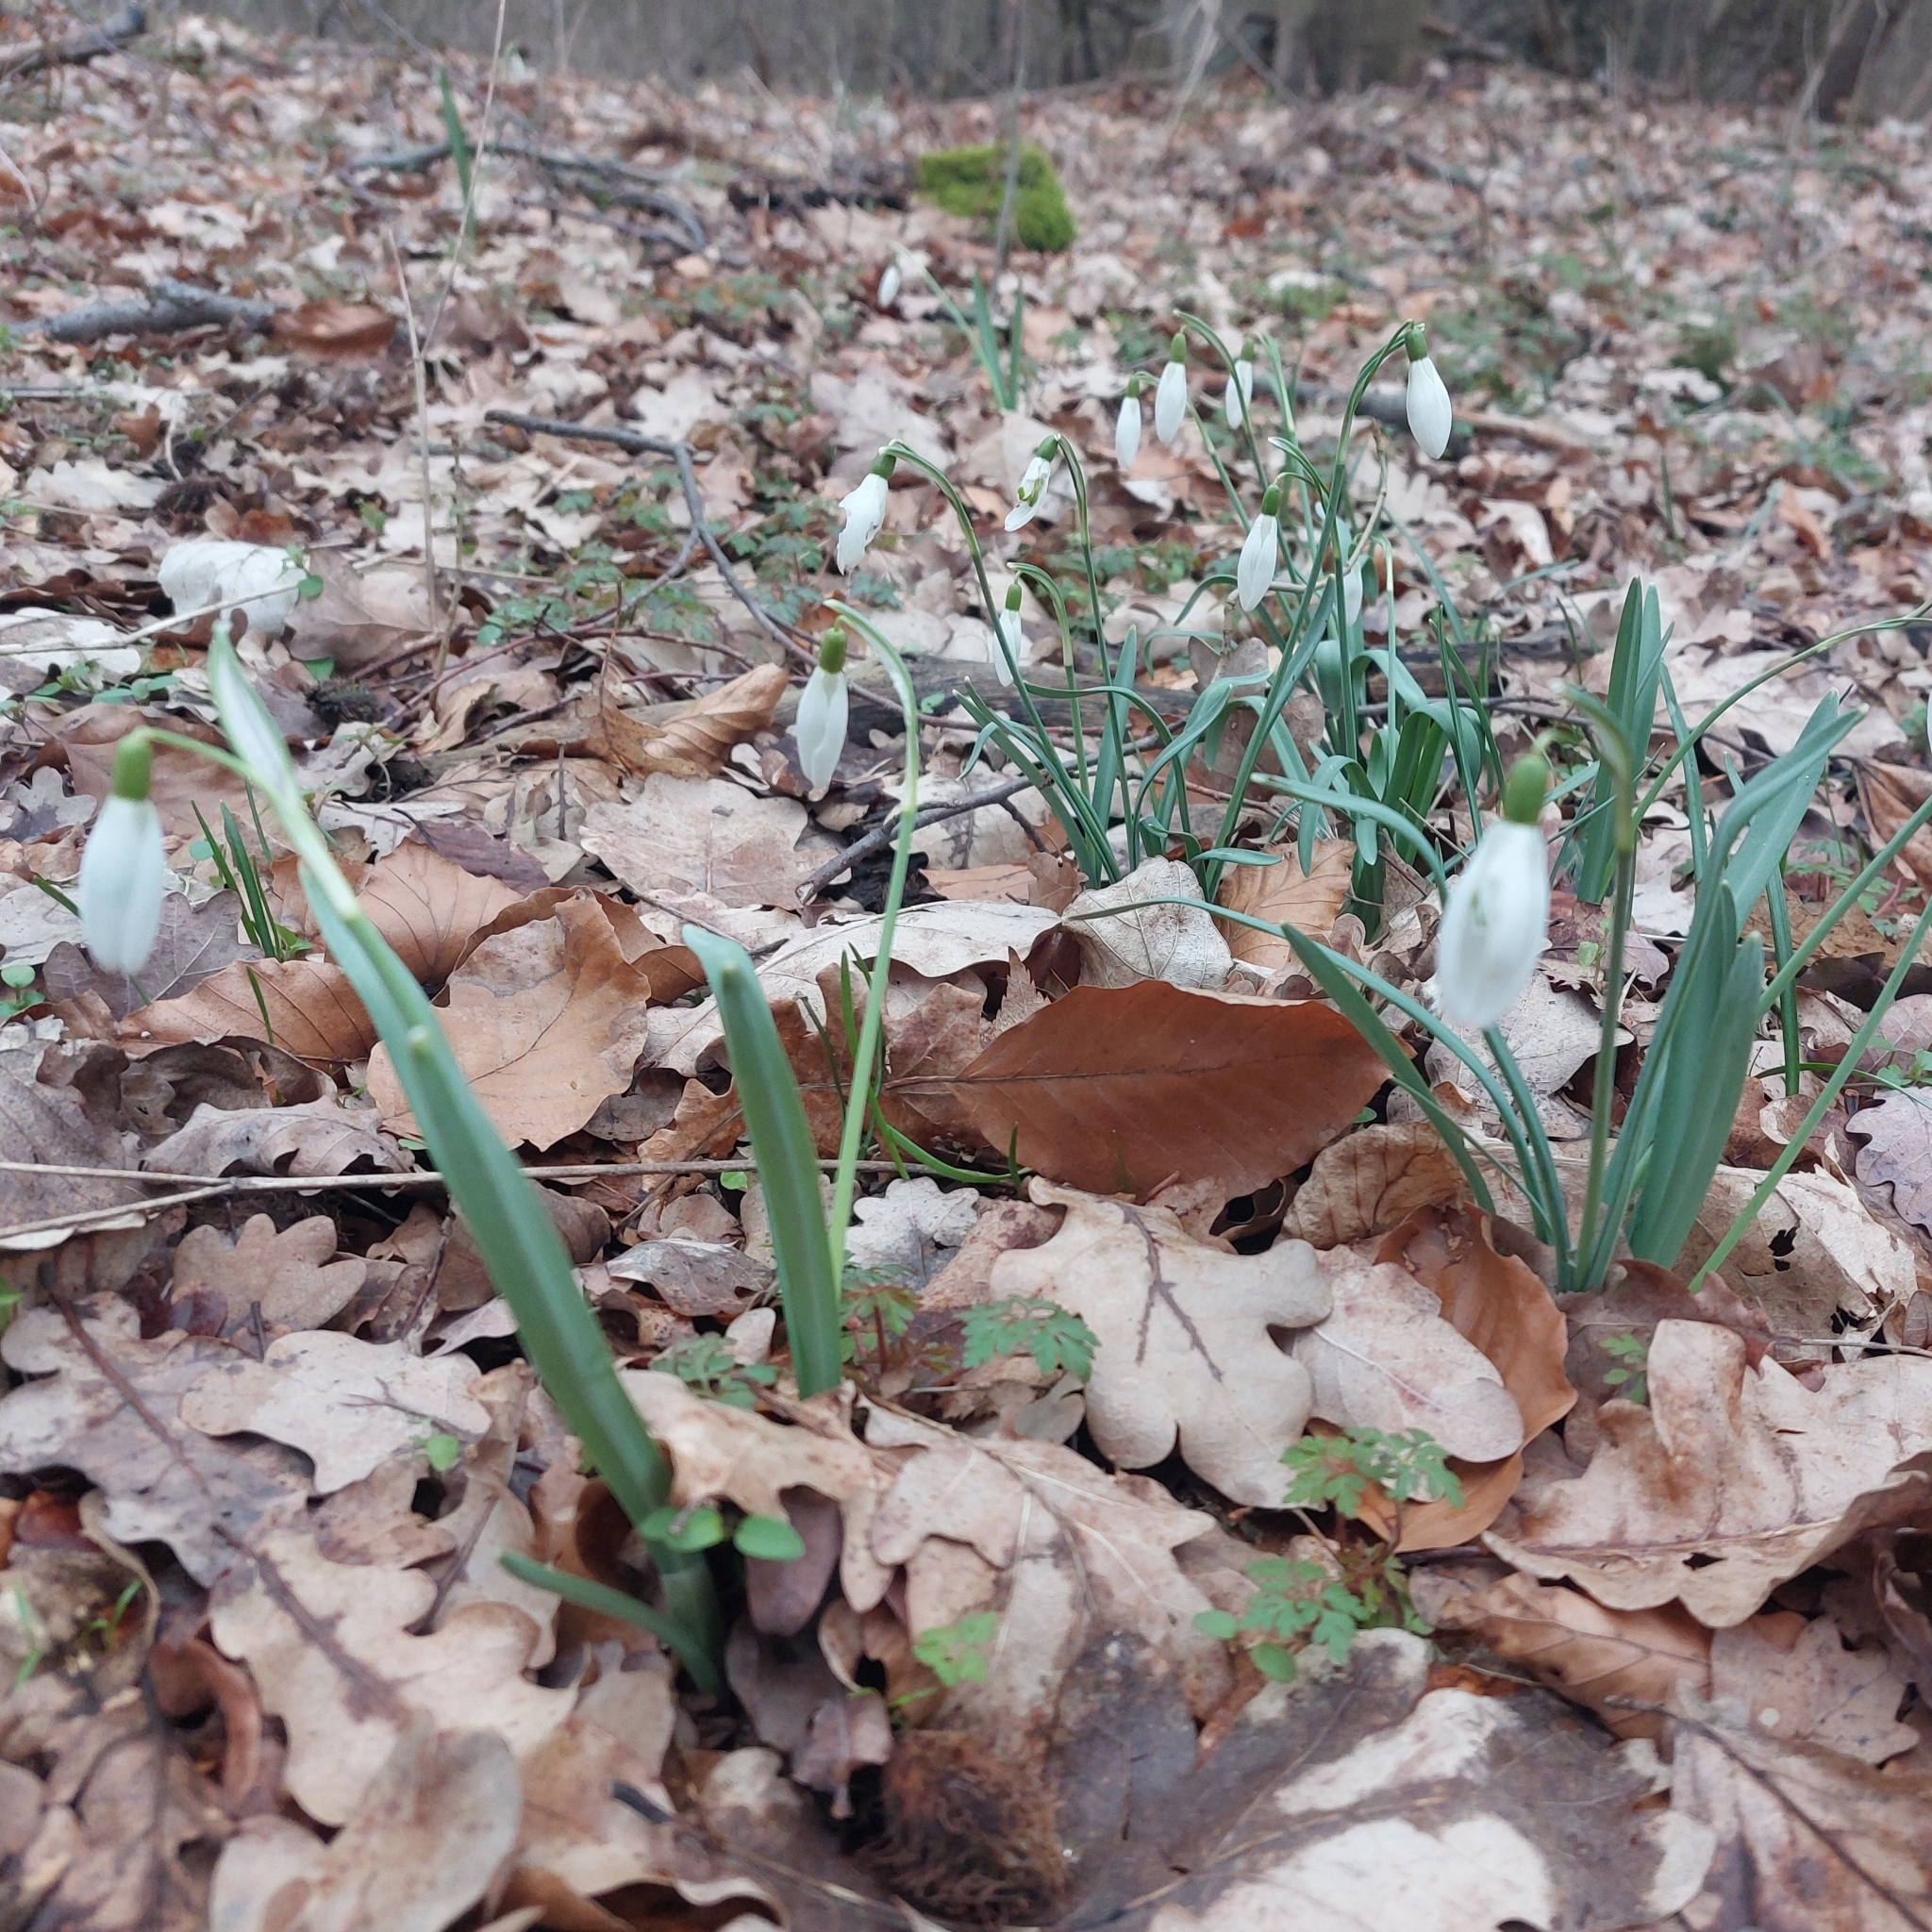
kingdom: Plantae
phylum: Tracheophyta
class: Liliopsida
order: Asparagales
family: Amaryllidaceae
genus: Galanthus
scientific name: Galanthus nivalis
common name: Snowdrop
